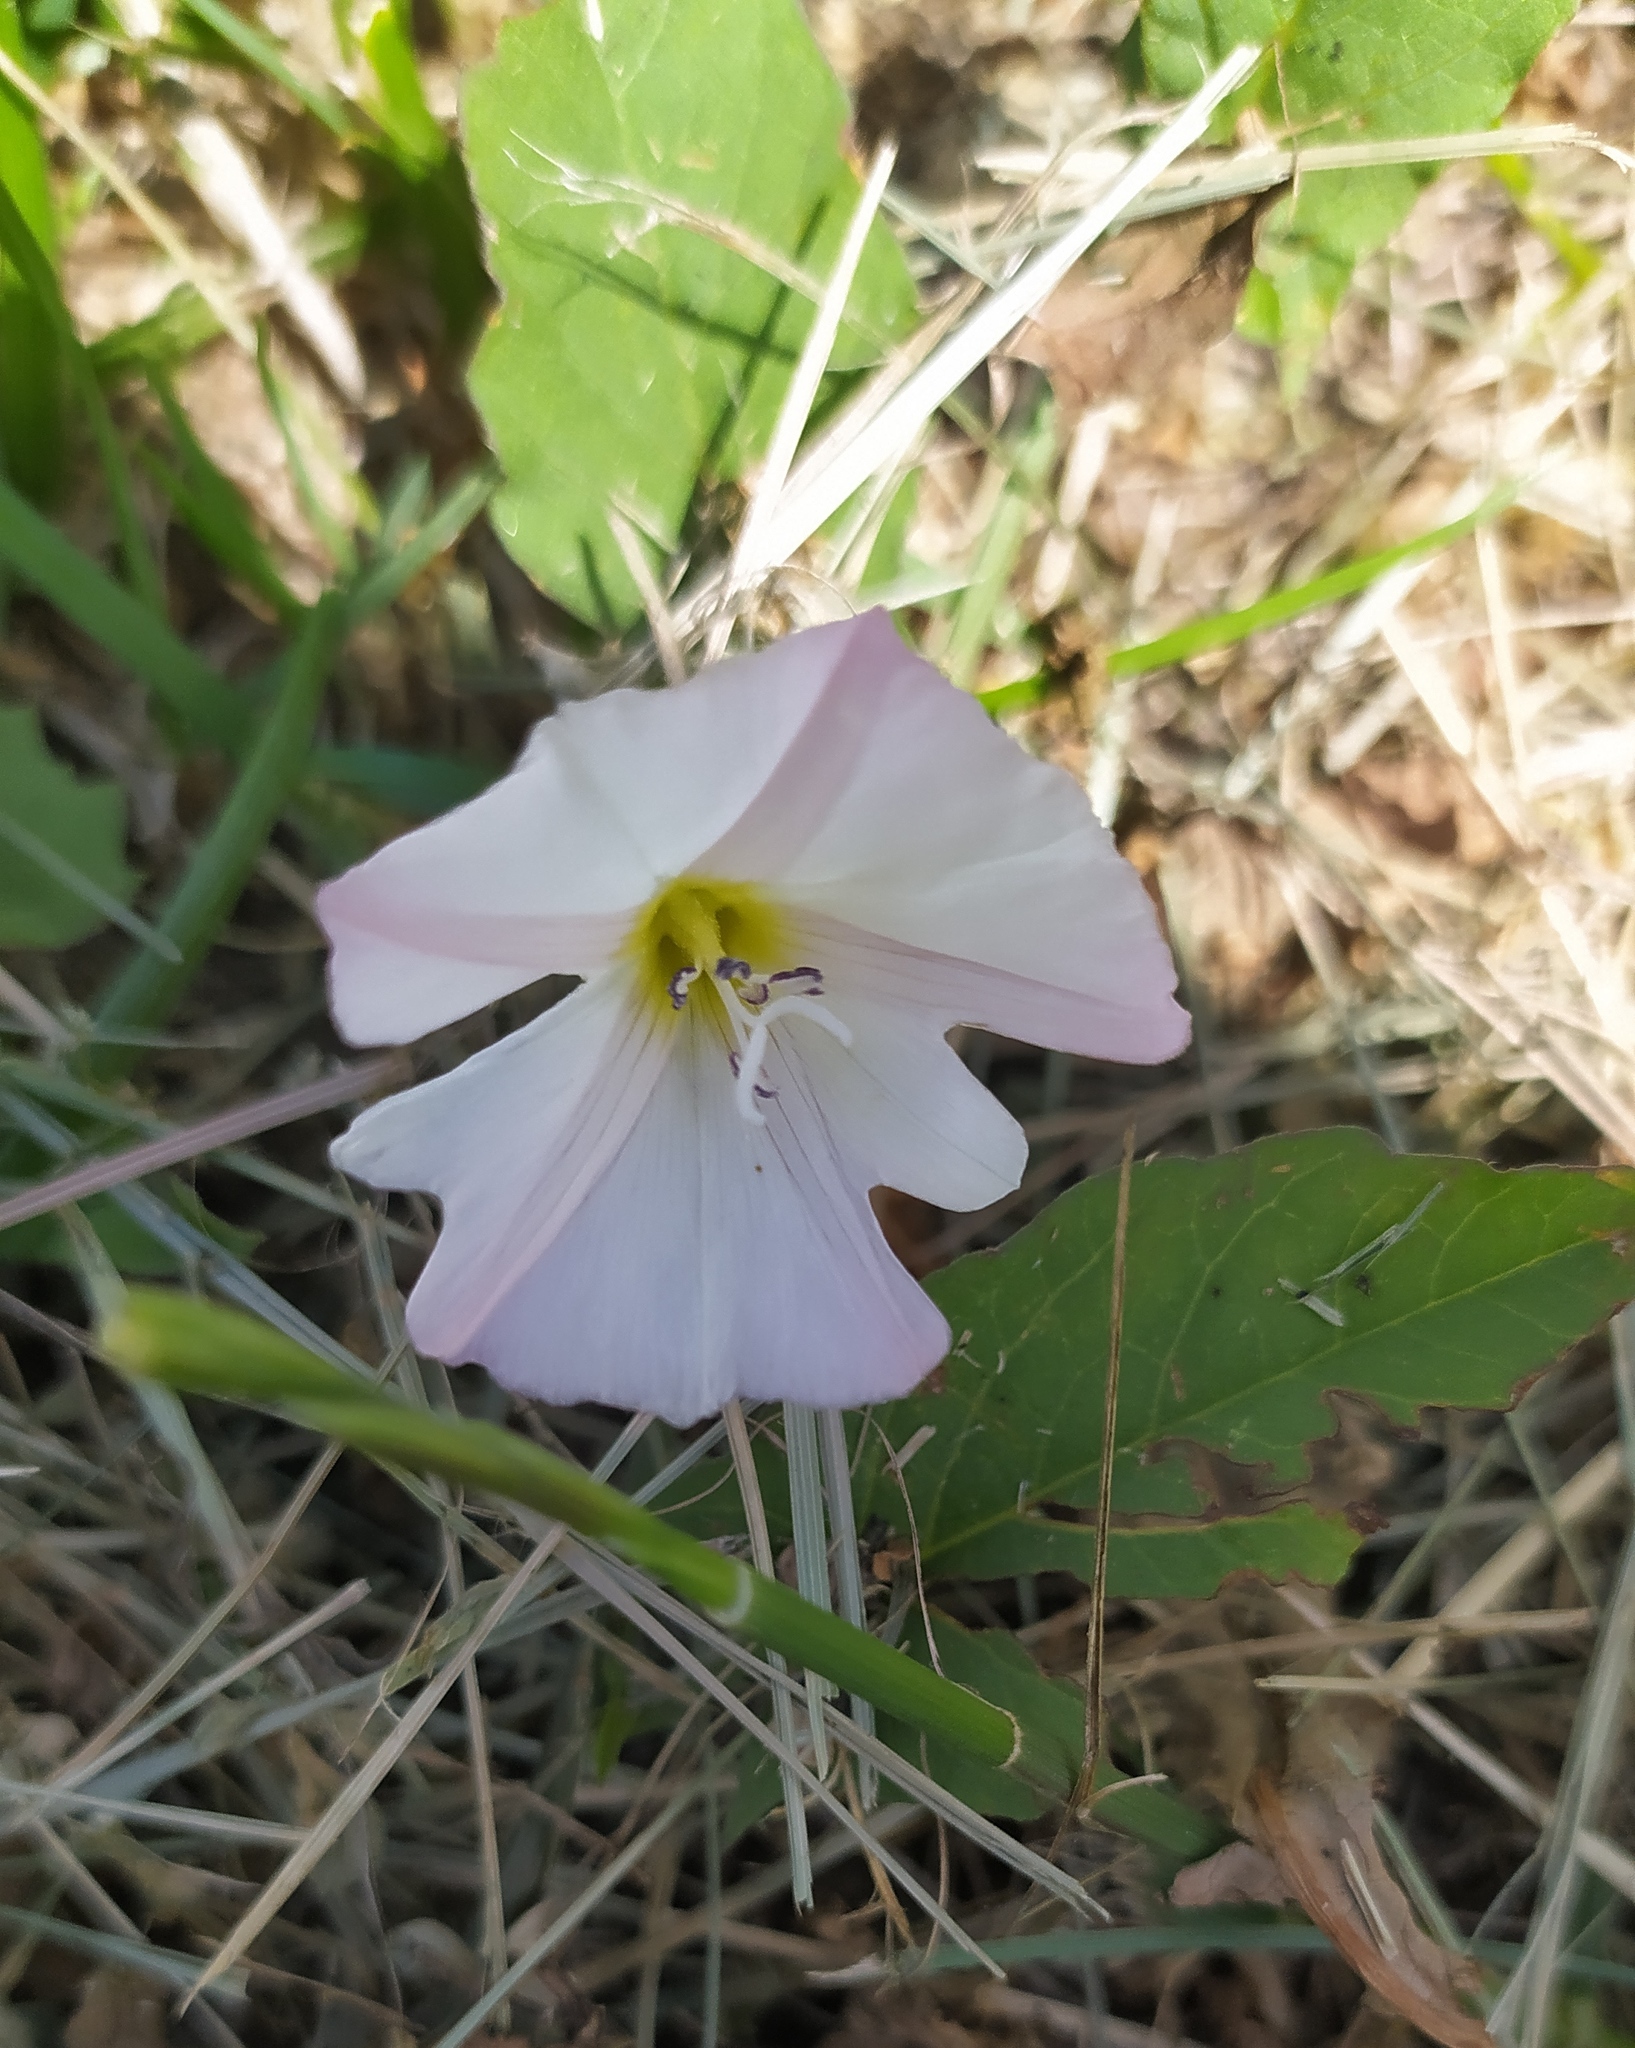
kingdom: Plantae
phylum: Tracheophyta
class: Magnoliopsida
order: Solanales
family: Convolvulaceae
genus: Convolvulus
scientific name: Convolvulus arvensis
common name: Field bindweed
